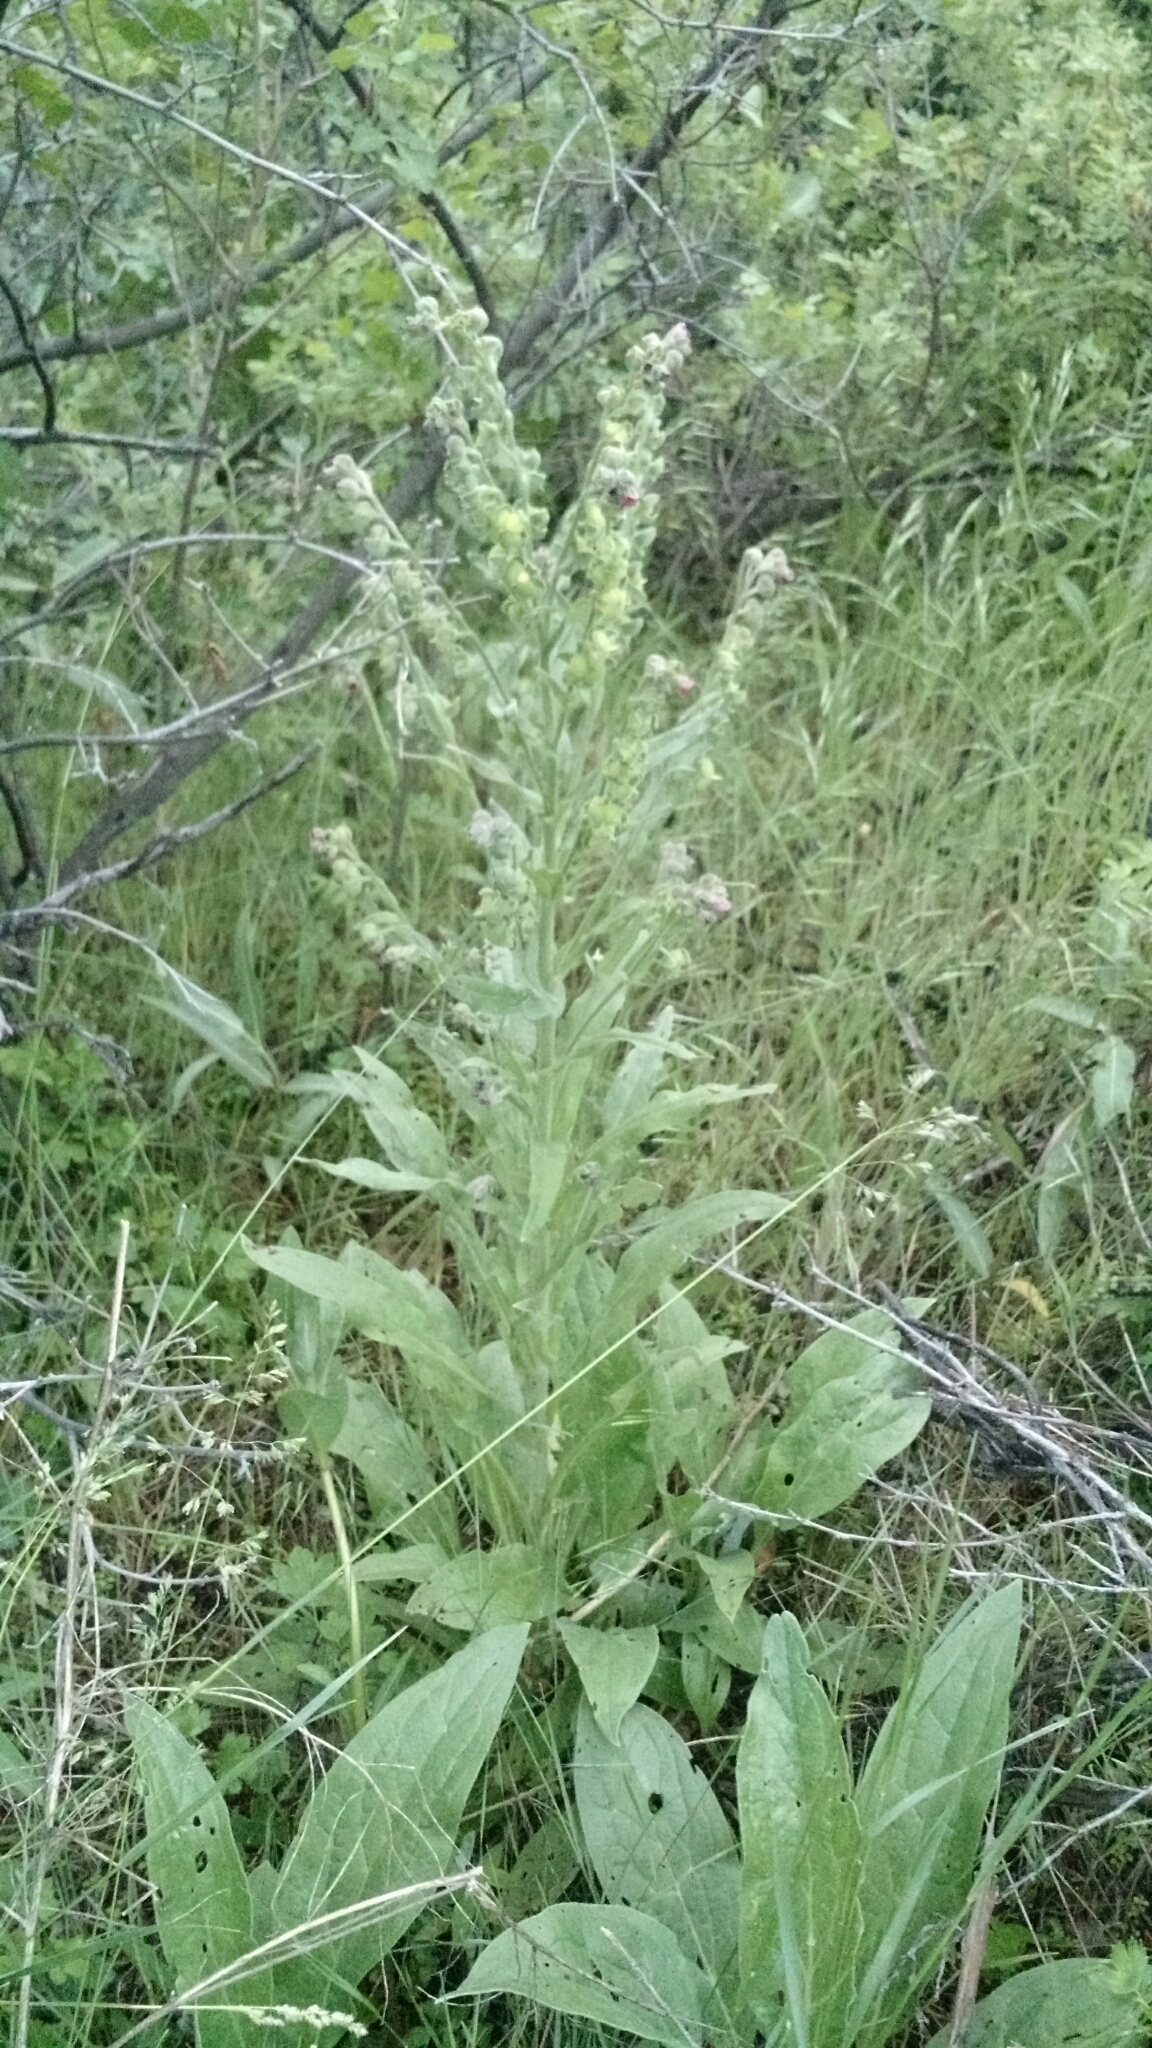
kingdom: Plantae
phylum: Tracheophyta
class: Magnoliopsida
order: Boraginales
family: Boraginaceae
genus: Cynoglossum
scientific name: Cynoglossum officinale
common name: Hound's-tongue
